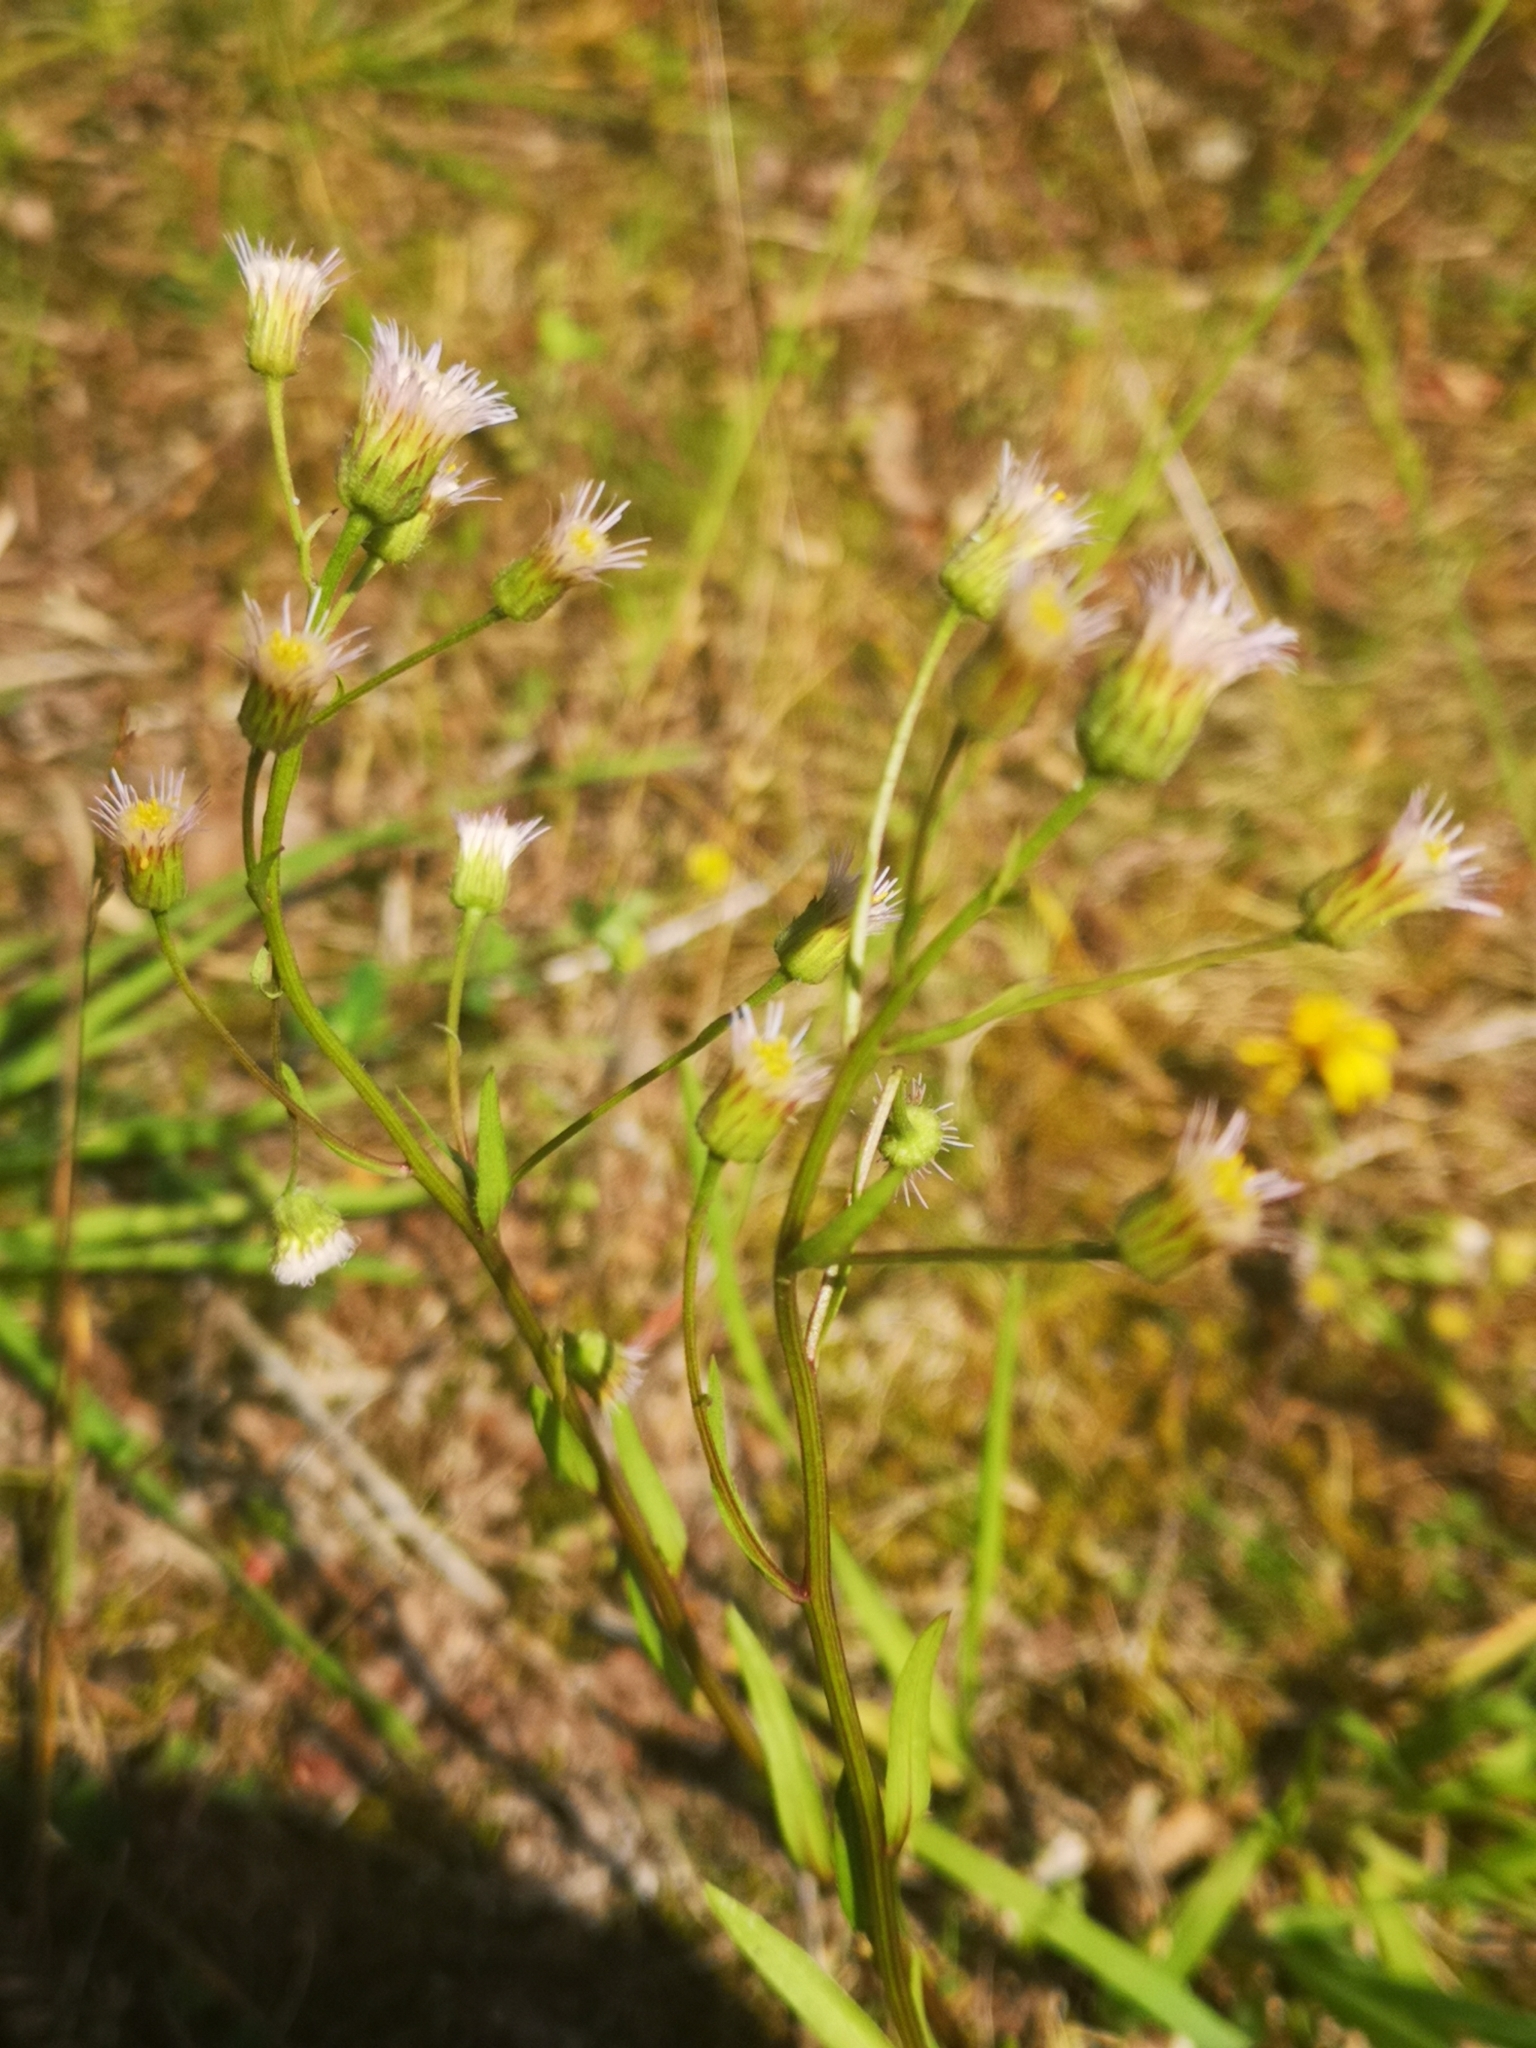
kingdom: Plantae
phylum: Tracheophyta
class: Magnoliopsida
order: Asterales
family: Asteraceae
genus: Erigeron
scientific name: Erigeron acris
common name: Blue fleabane
